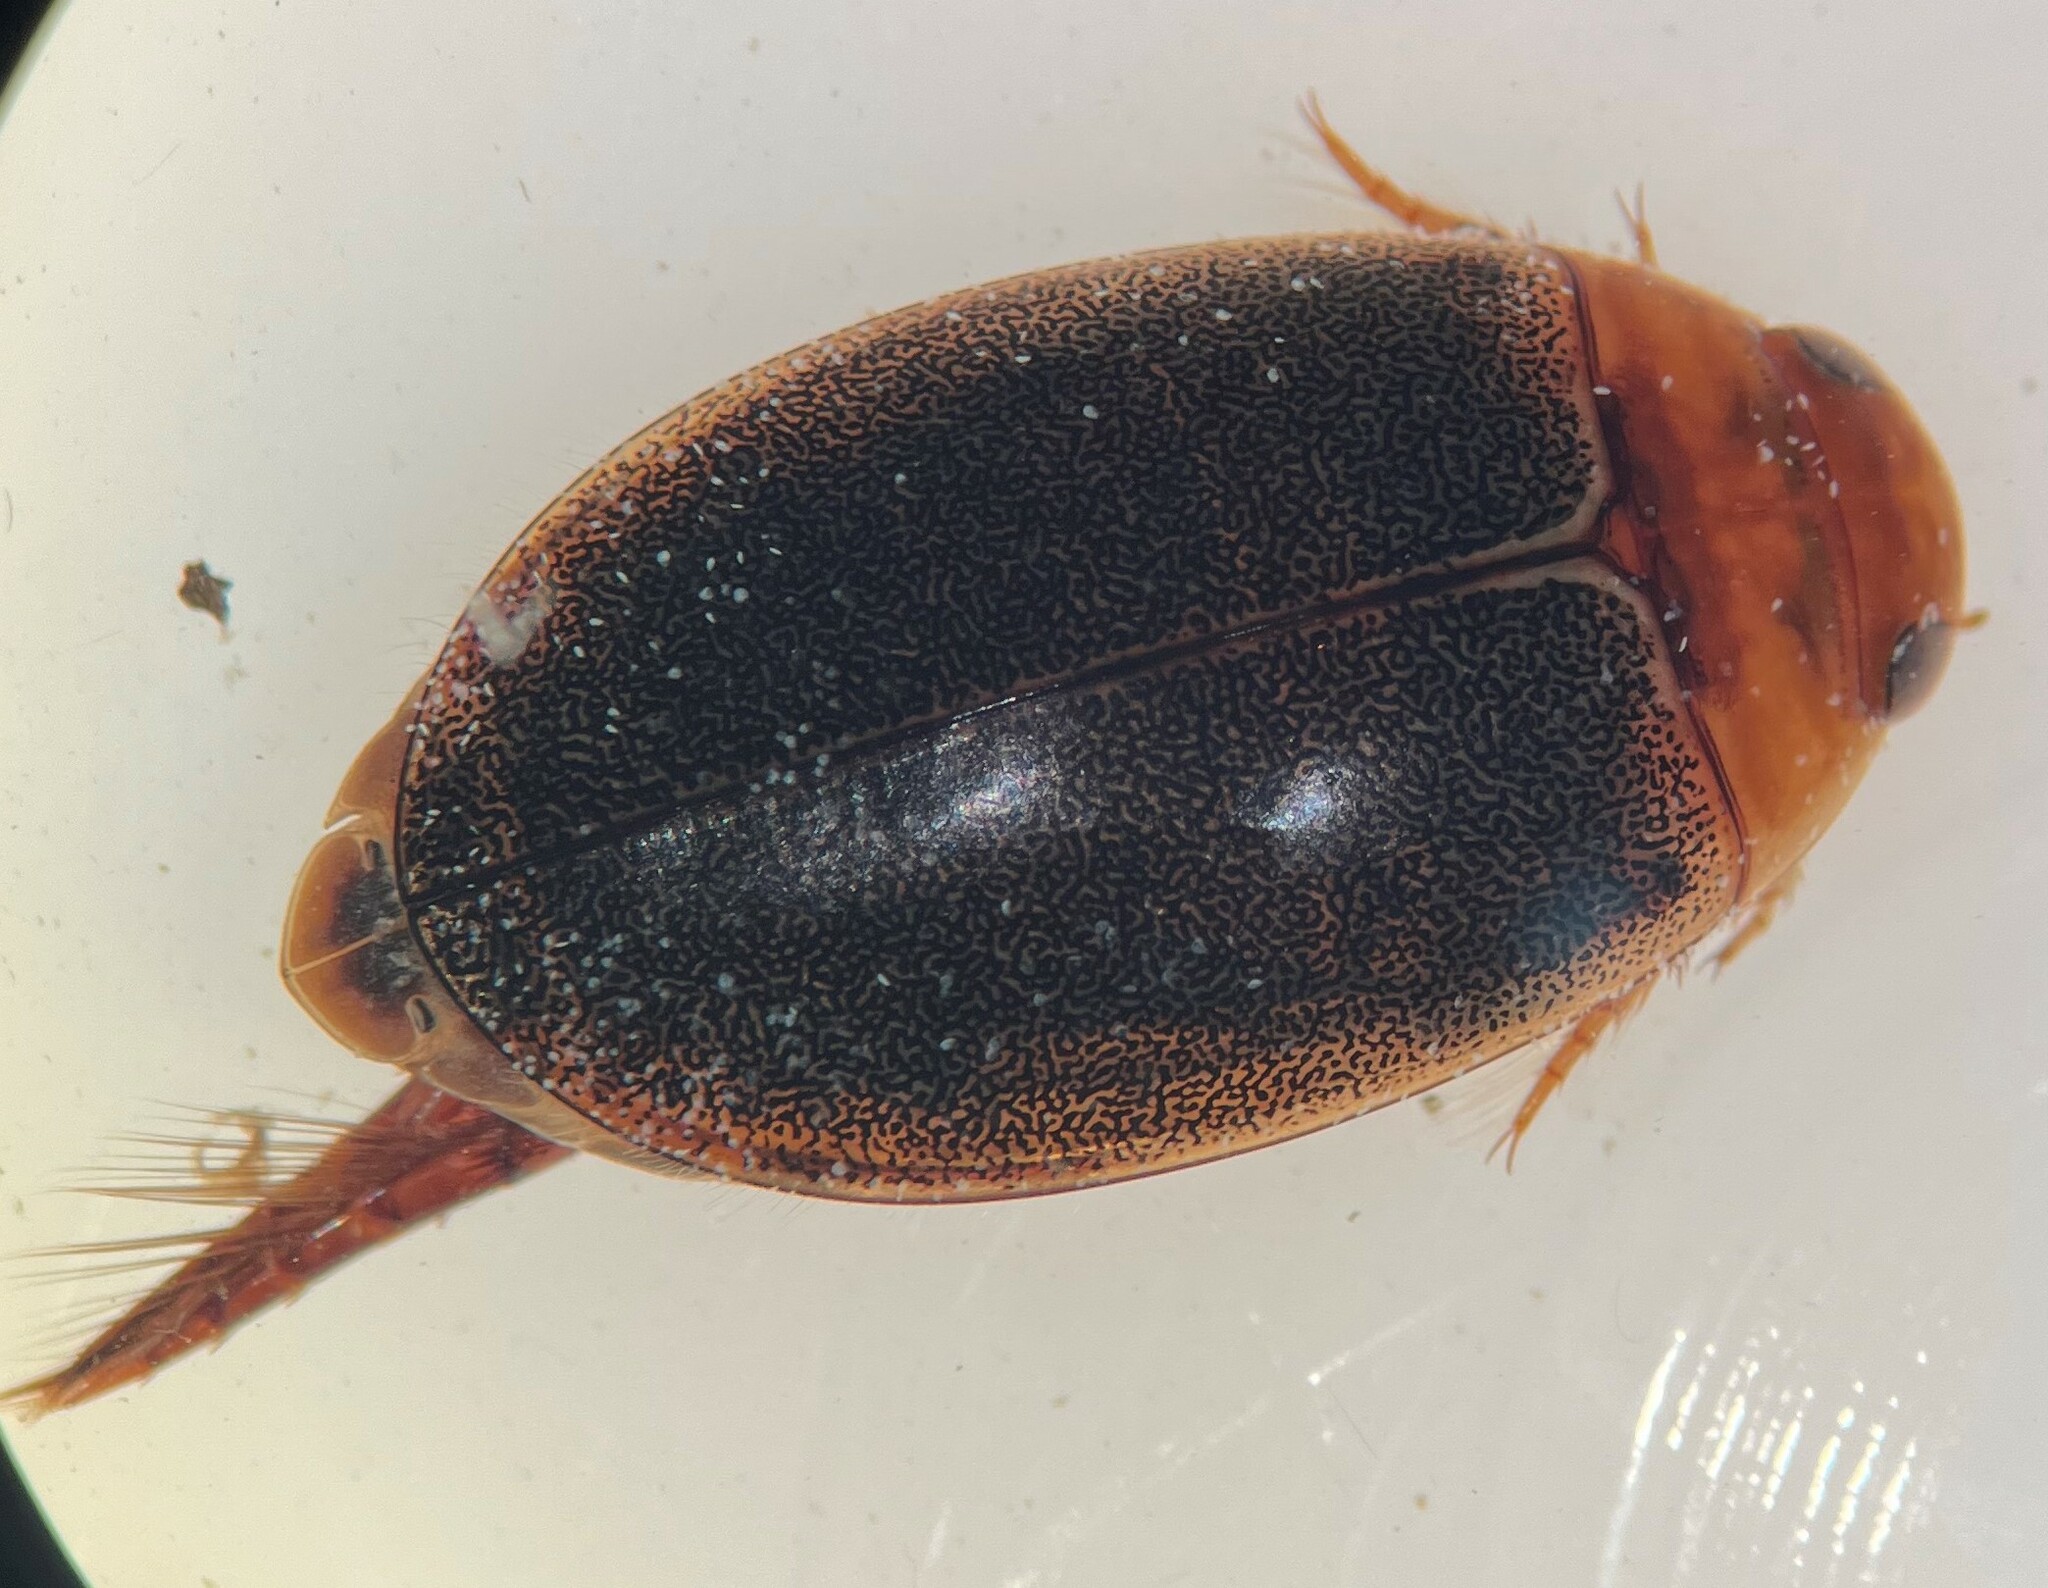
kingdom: Animalia
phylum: Arthropoda
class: Insecta
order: Coleoptera
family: Dytiscidae
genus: Graphoderus
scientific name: Graphoderus liberus
